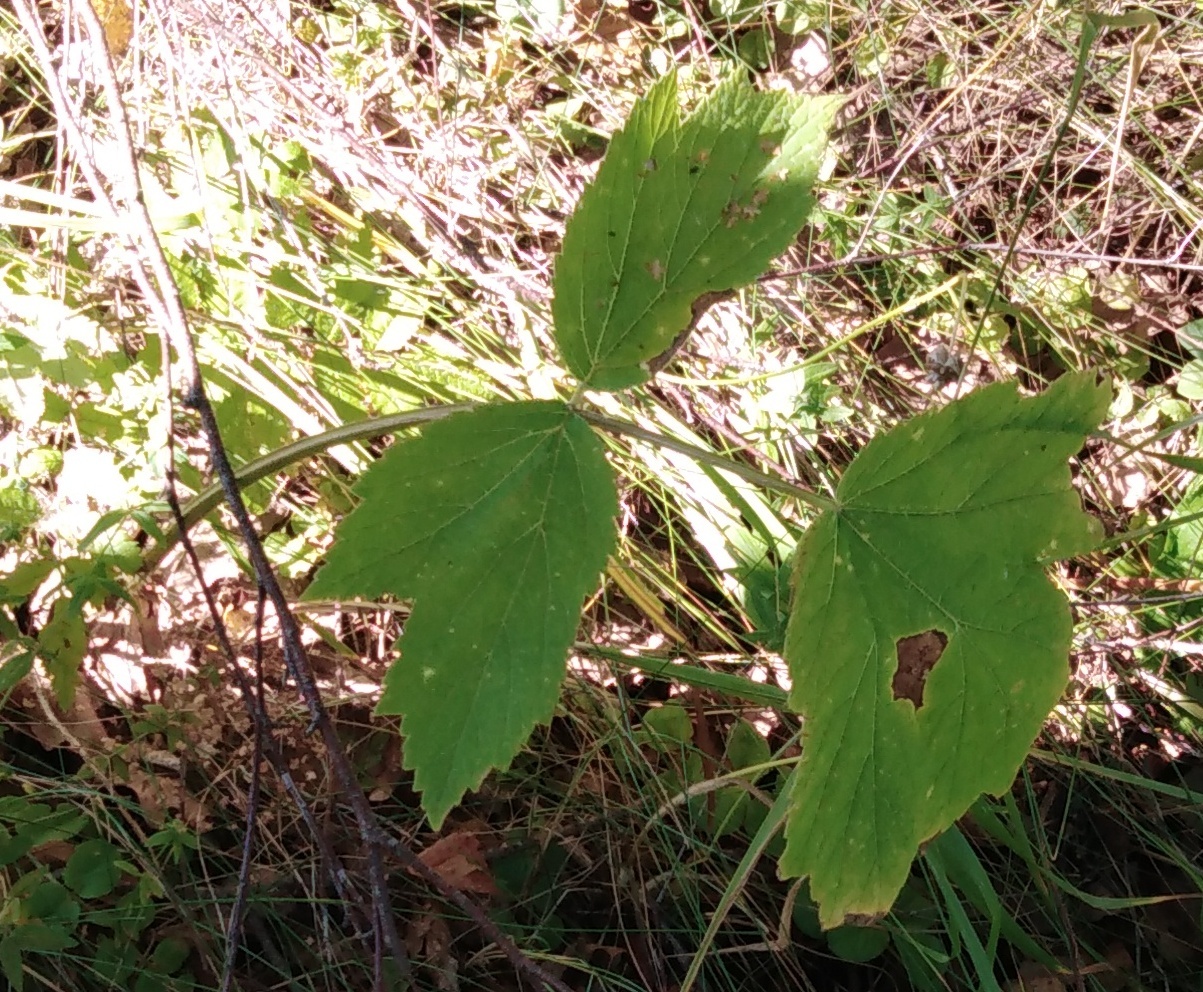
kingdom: Plantae
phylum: Tracheophyta
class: Magnoliopsida
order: Apiales
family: Apiaceae
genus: Heracleum
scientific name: Heracleum sphondylium
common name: Hogweed
